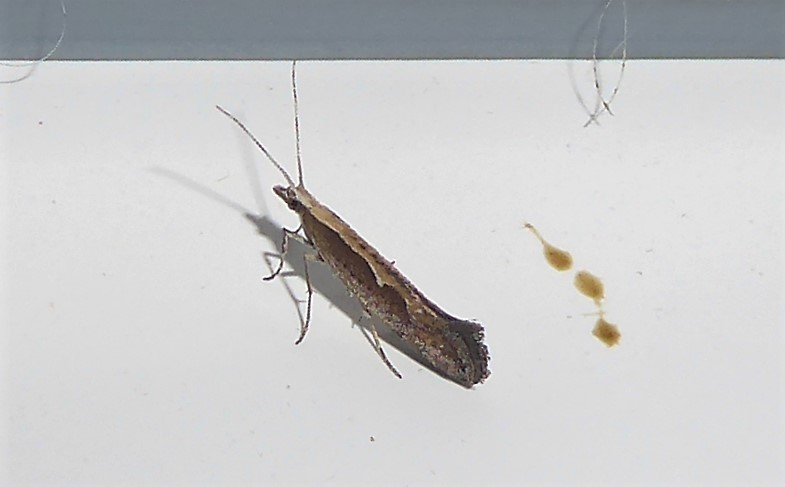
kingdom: Animalia
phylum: Arthropoda
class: Insecta
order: Lepidoptera
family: Plutellidae
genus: Plutella
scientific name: Plutella xylostella
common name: Diamond-back moth
